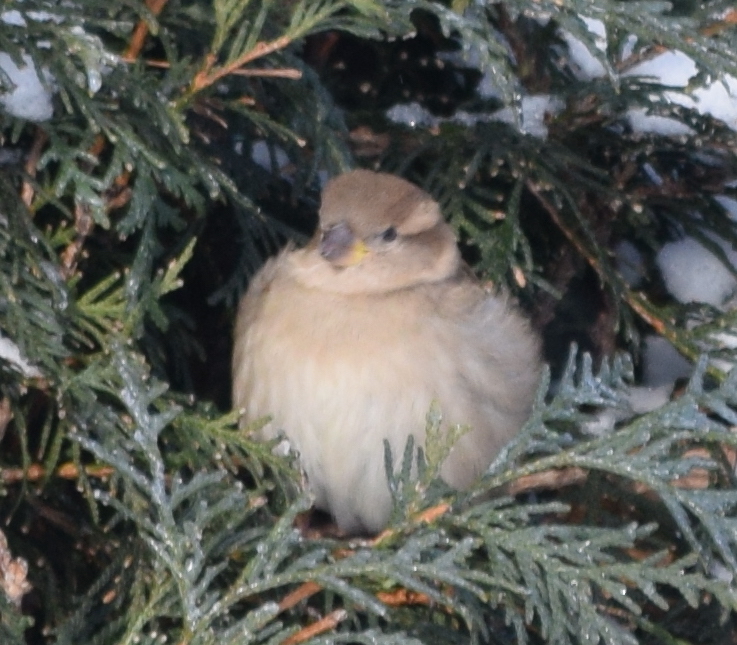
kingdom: Animalia
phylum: Chordata
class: Aves
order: Passeriformes
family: Passeridae
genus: Passer
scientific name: Passer domesticus
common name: House sparrow
